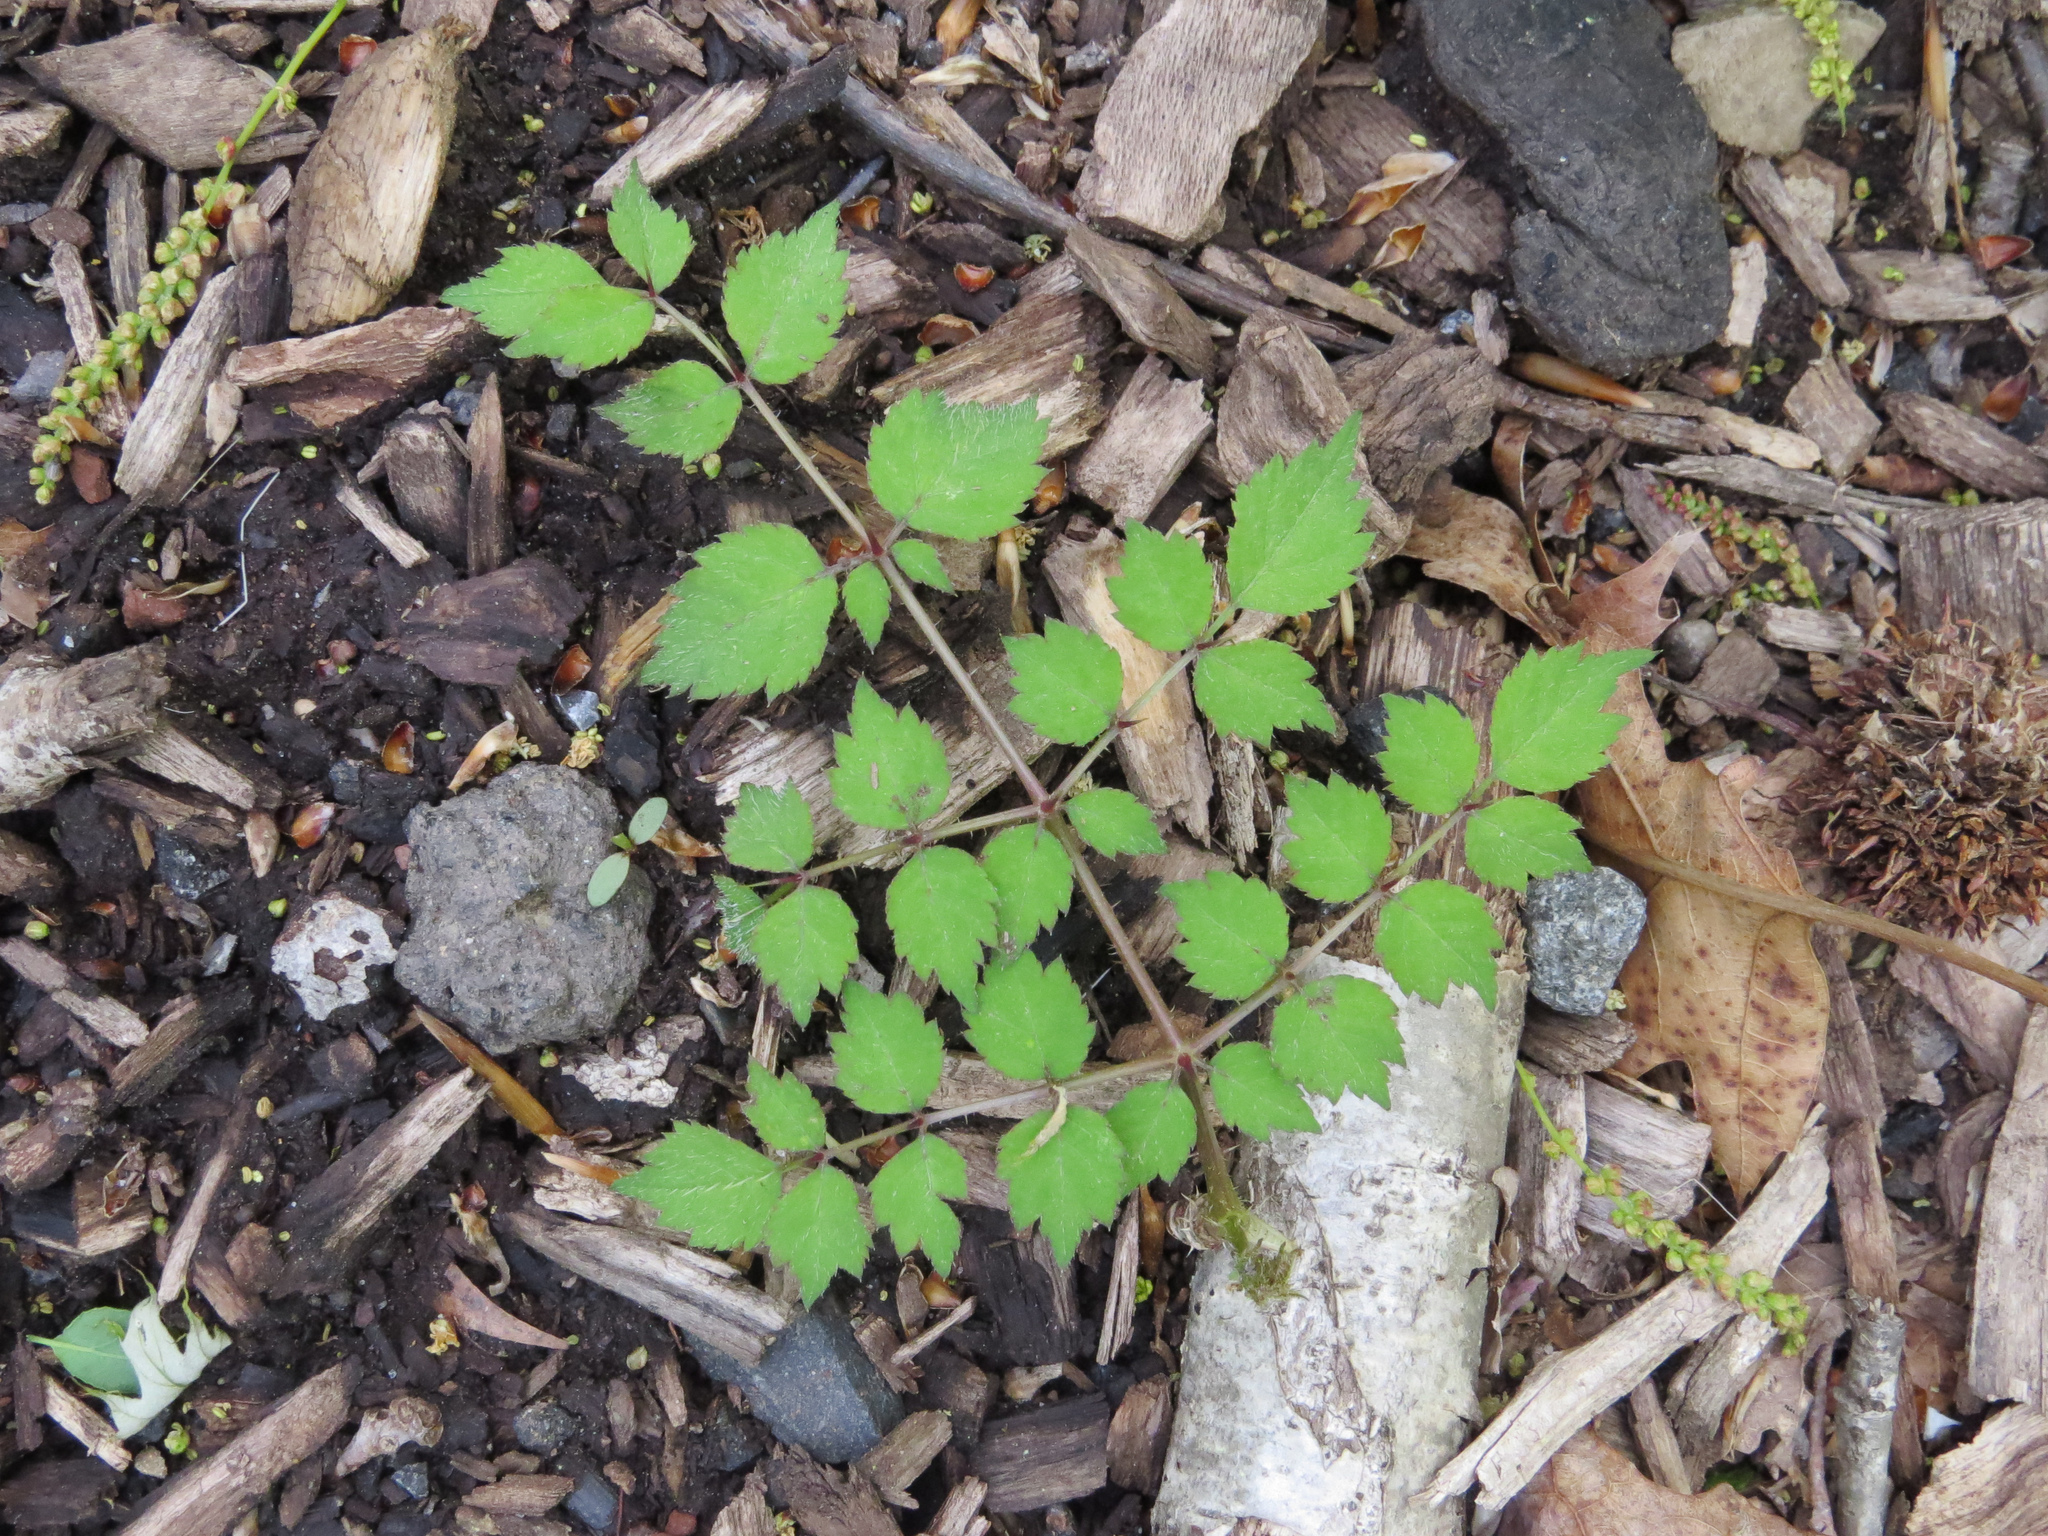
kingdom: Plantae
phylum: Tracheophyta
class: Magnoliopsida
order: Apiales
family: Araliaceae
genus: Aralia
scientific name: Aralia elata
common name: Japanese angelica-tree
